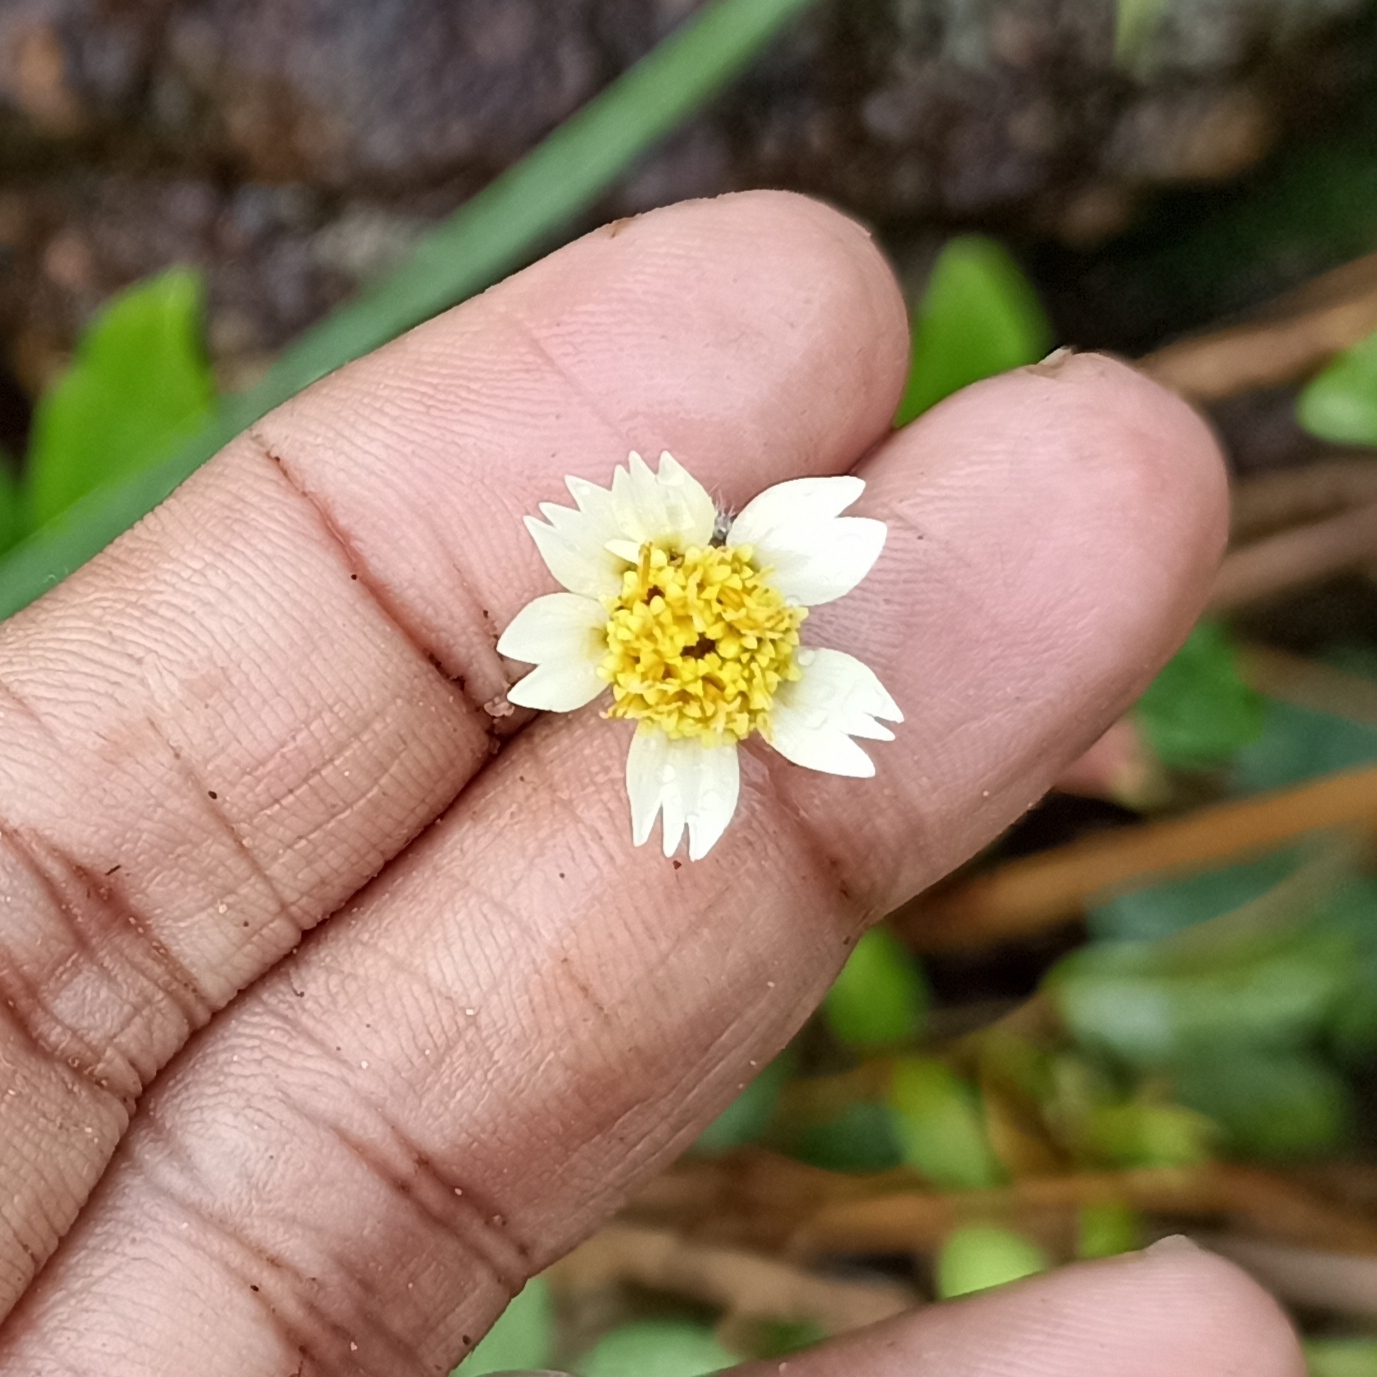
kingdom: Plantae
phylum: Tracheophyta
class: Magnoliopsida
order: Asterales
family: Asteraceae
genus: Tridax
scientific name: Tridax procumbens
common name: Coatbuttons
